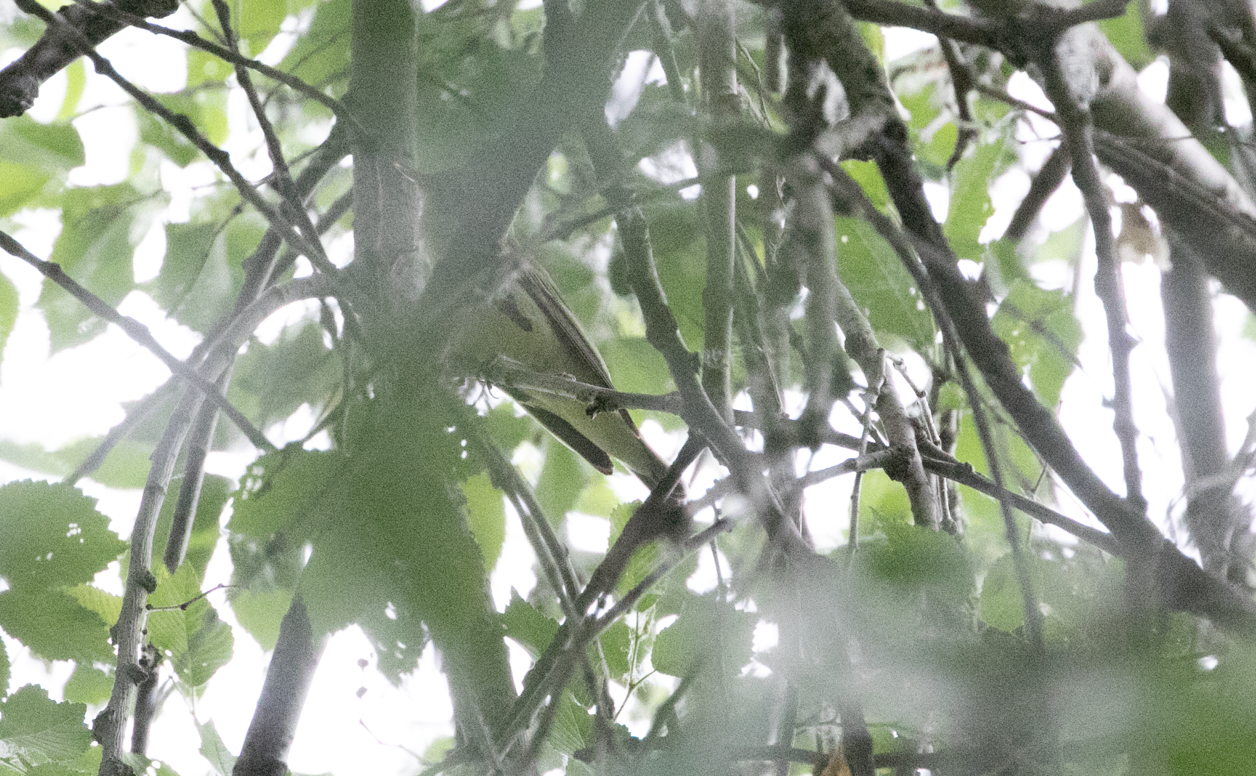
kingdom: Animalia
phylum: Chordata
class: Aves
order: Passeriformes
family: Acrocephalidae
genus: Hippolais
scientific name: Hippolais icterina
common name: Icterine warbler
